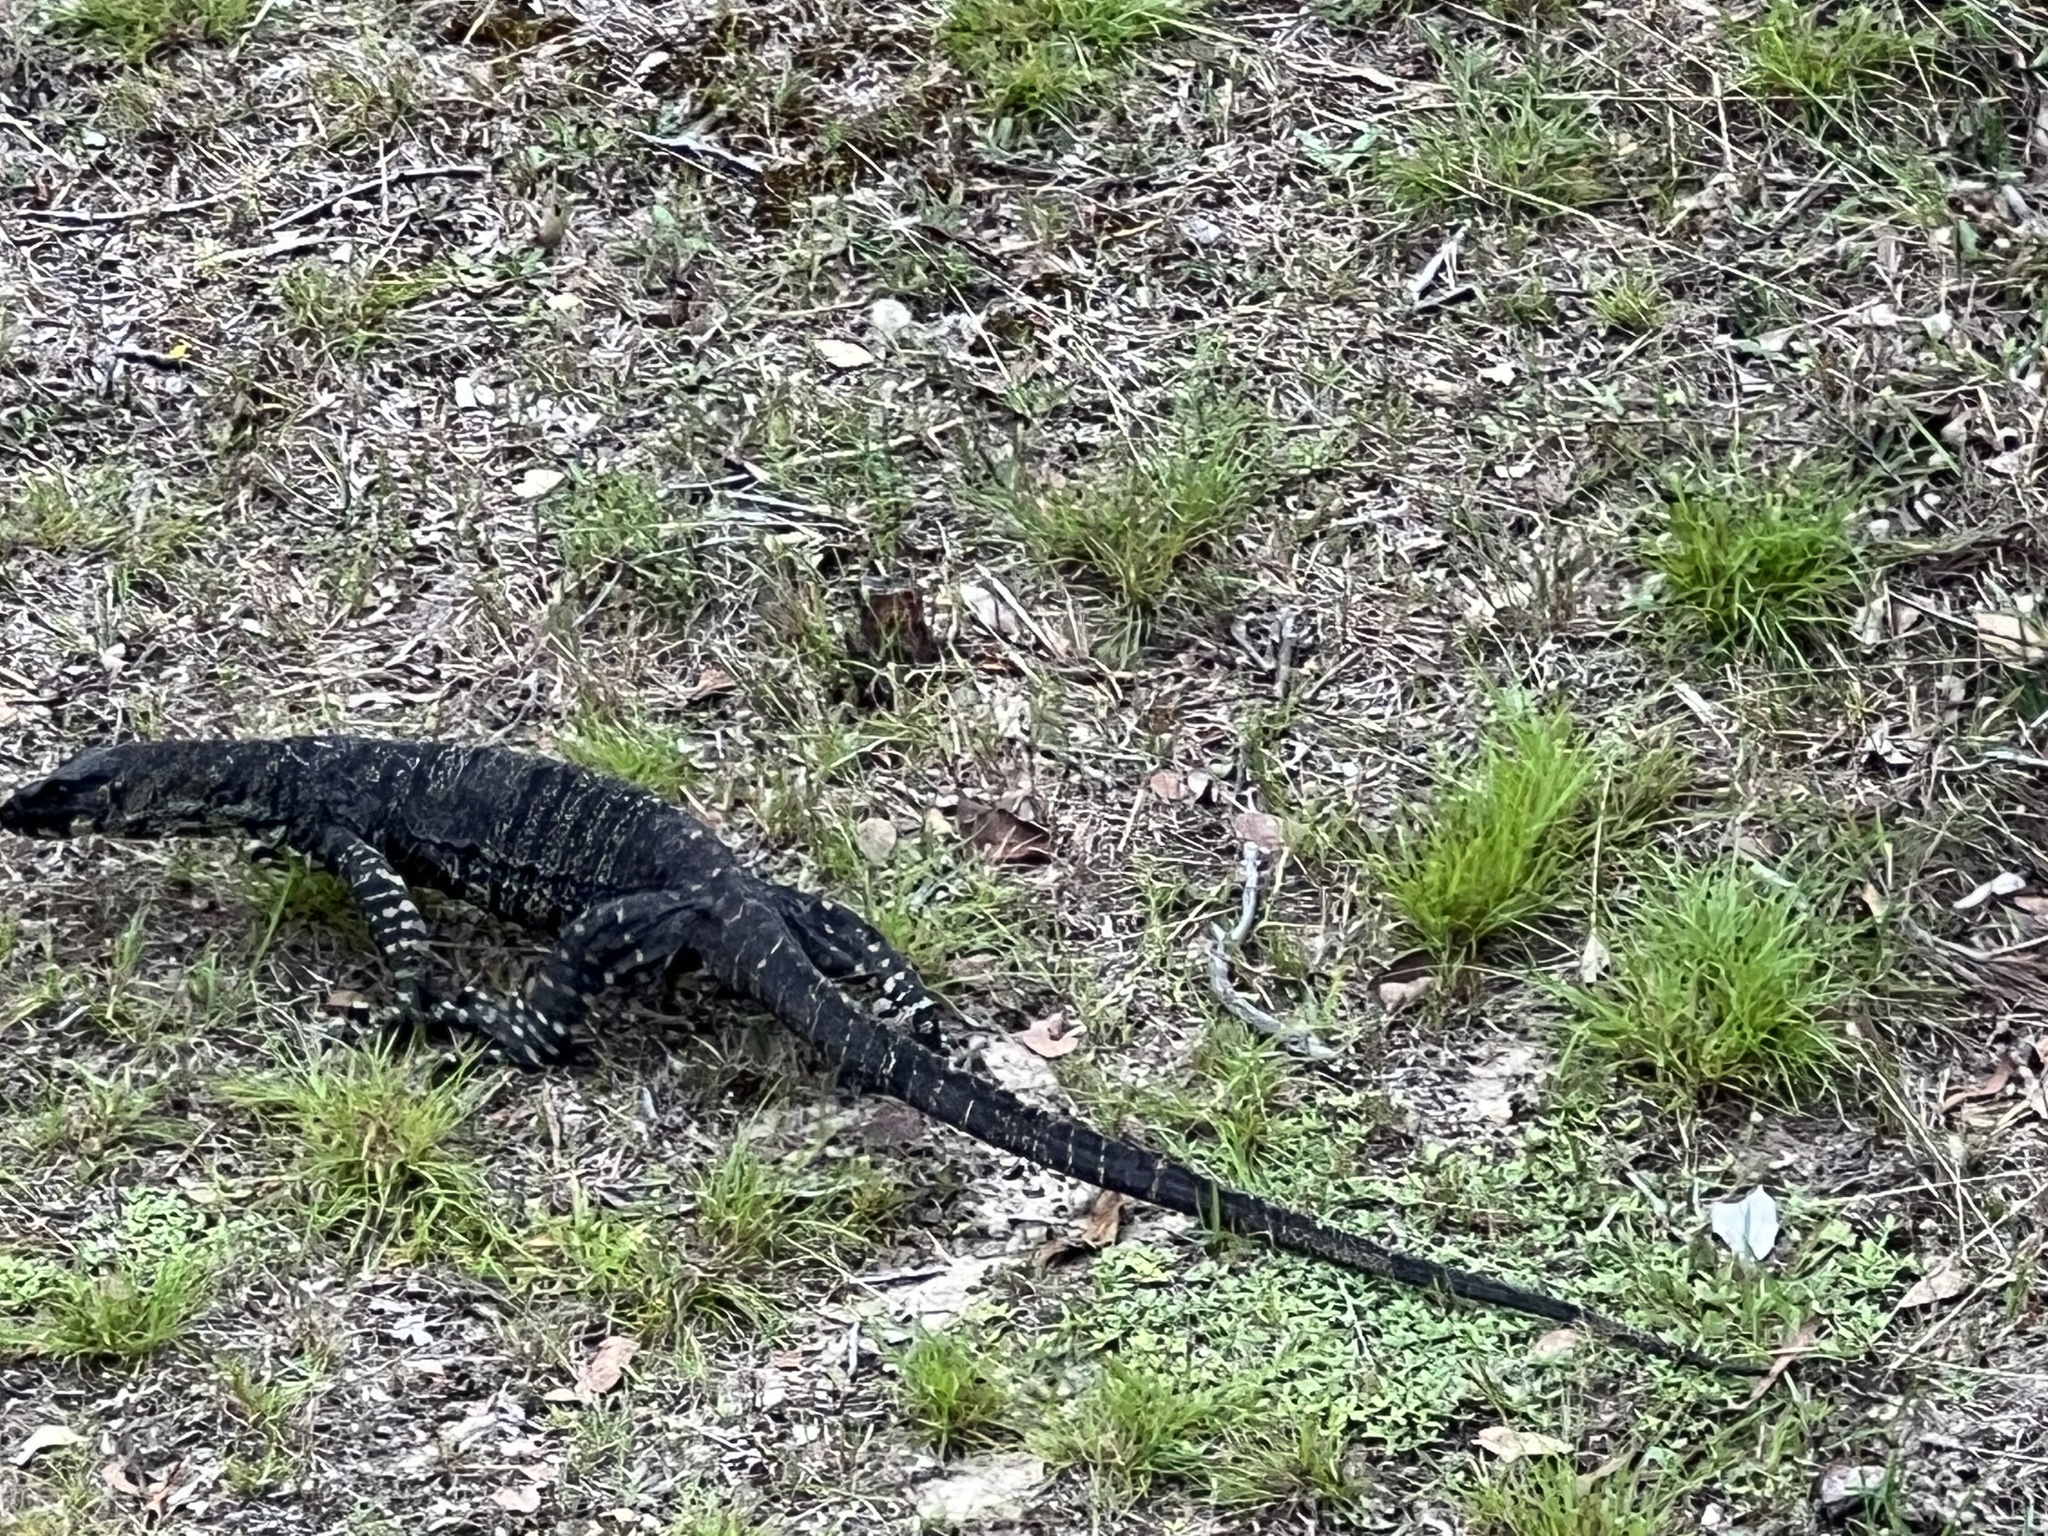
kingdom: Animalia
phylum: Chordata
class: Squamata
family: Varanidae
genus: Varanus
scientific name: Varanus varius
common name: Lace monitor
